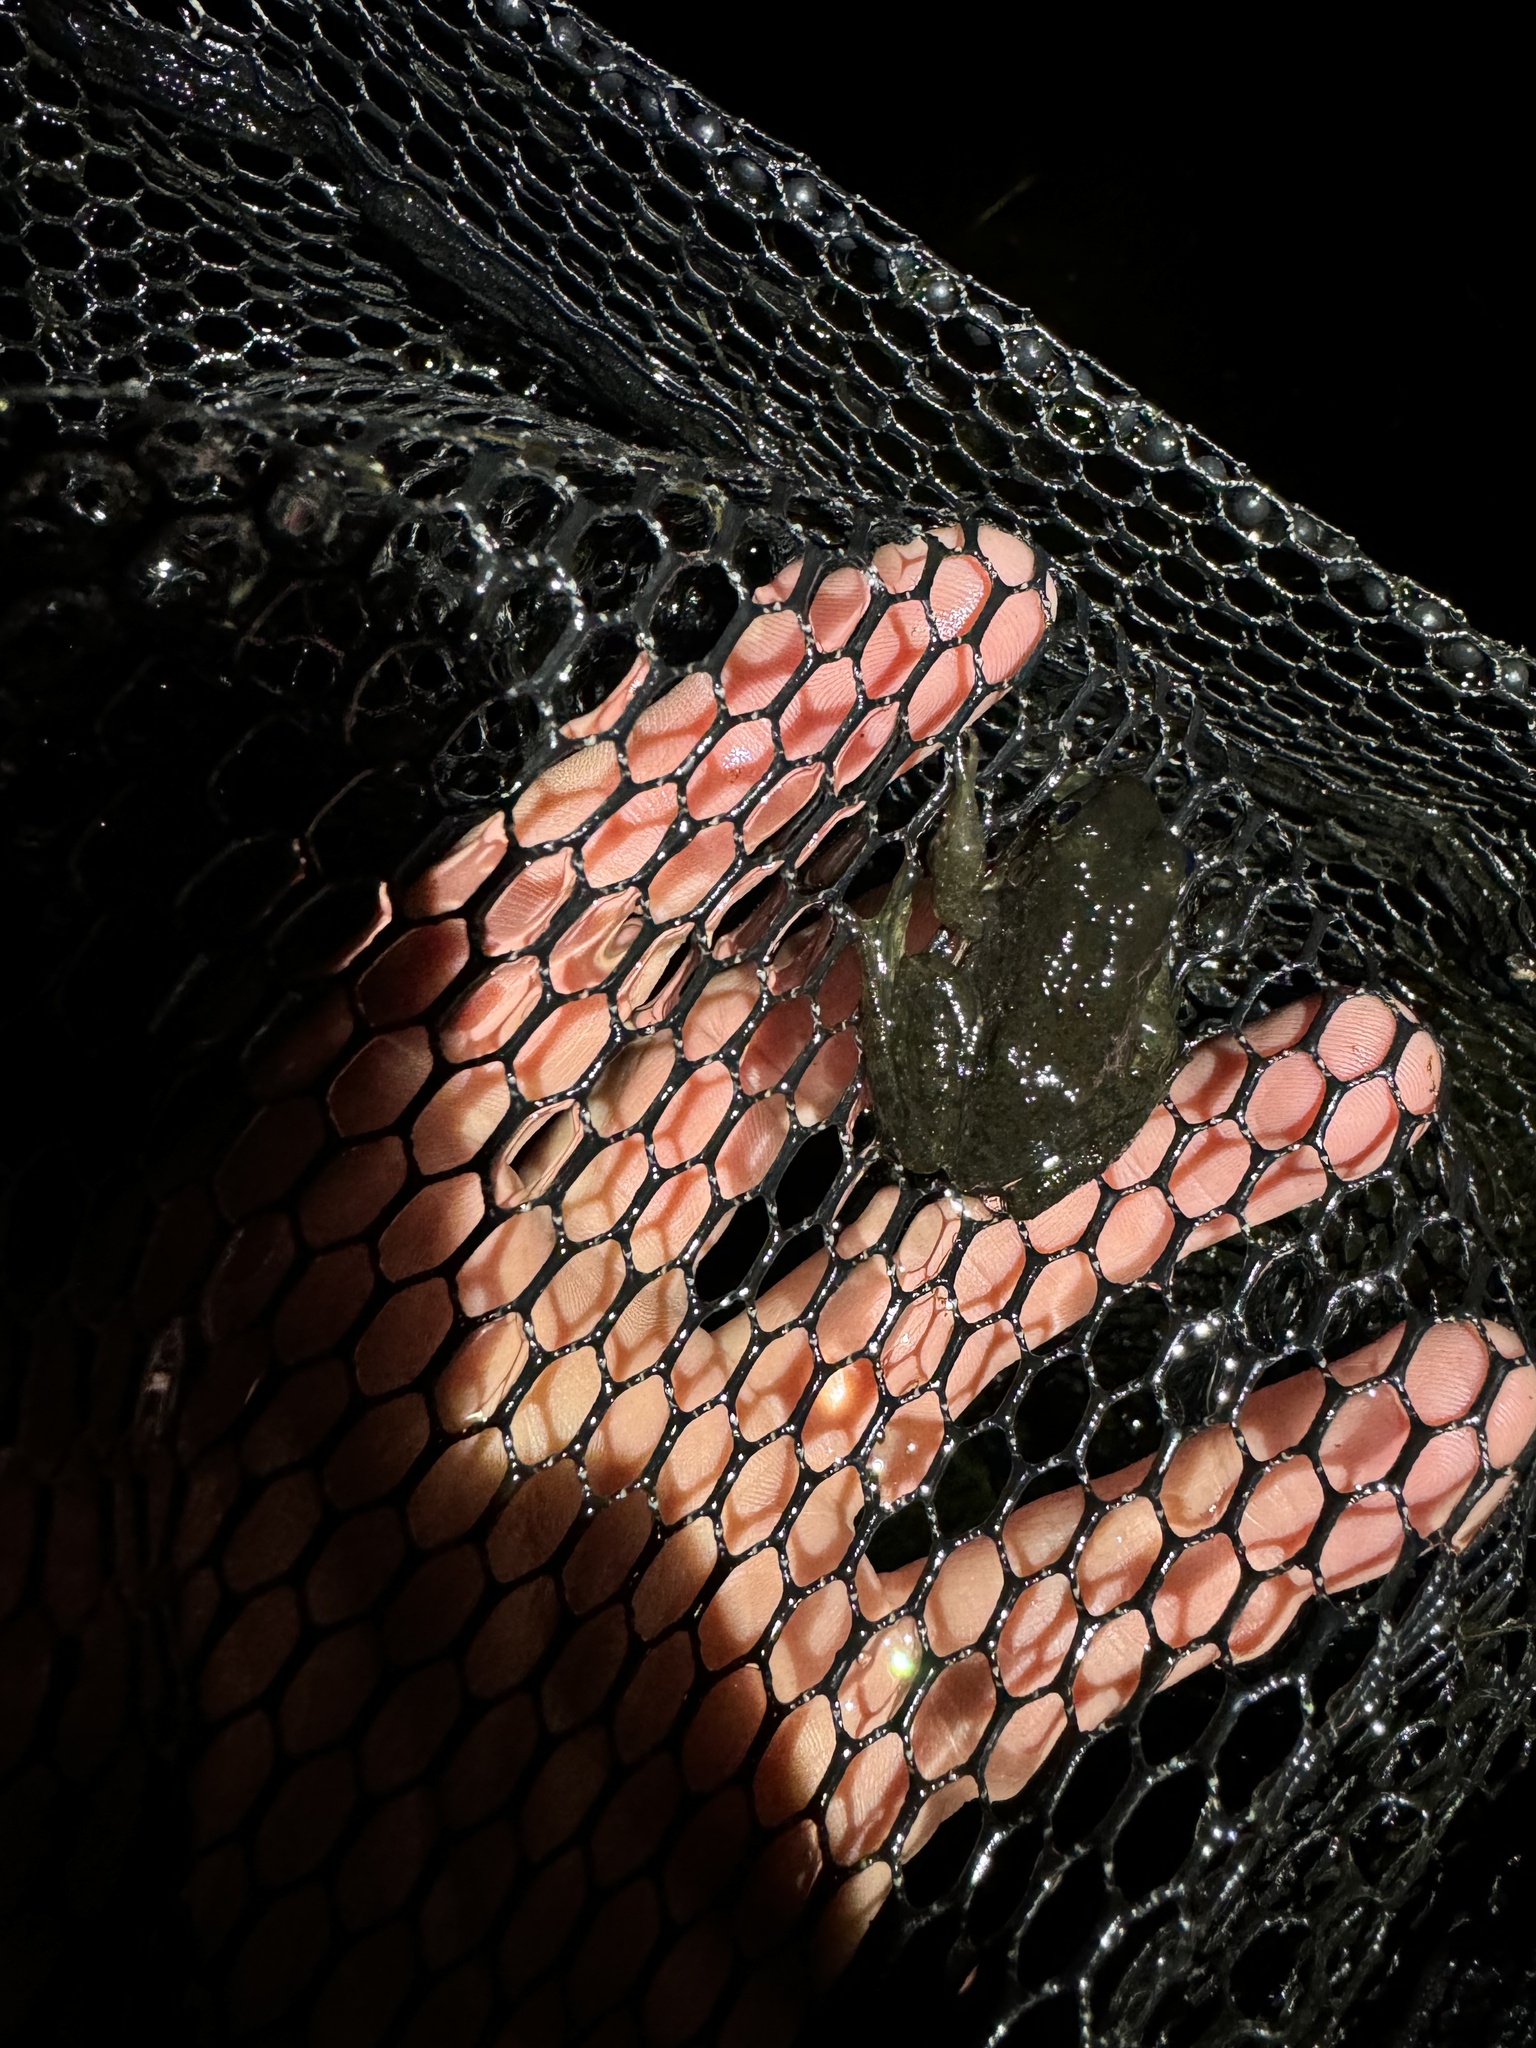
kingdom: Animalia
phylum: Chordata
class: Amphibia
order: Anura
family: Ranidae
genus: Lithobates
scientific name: Lithobates catesbeianus
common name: American bullfrog
